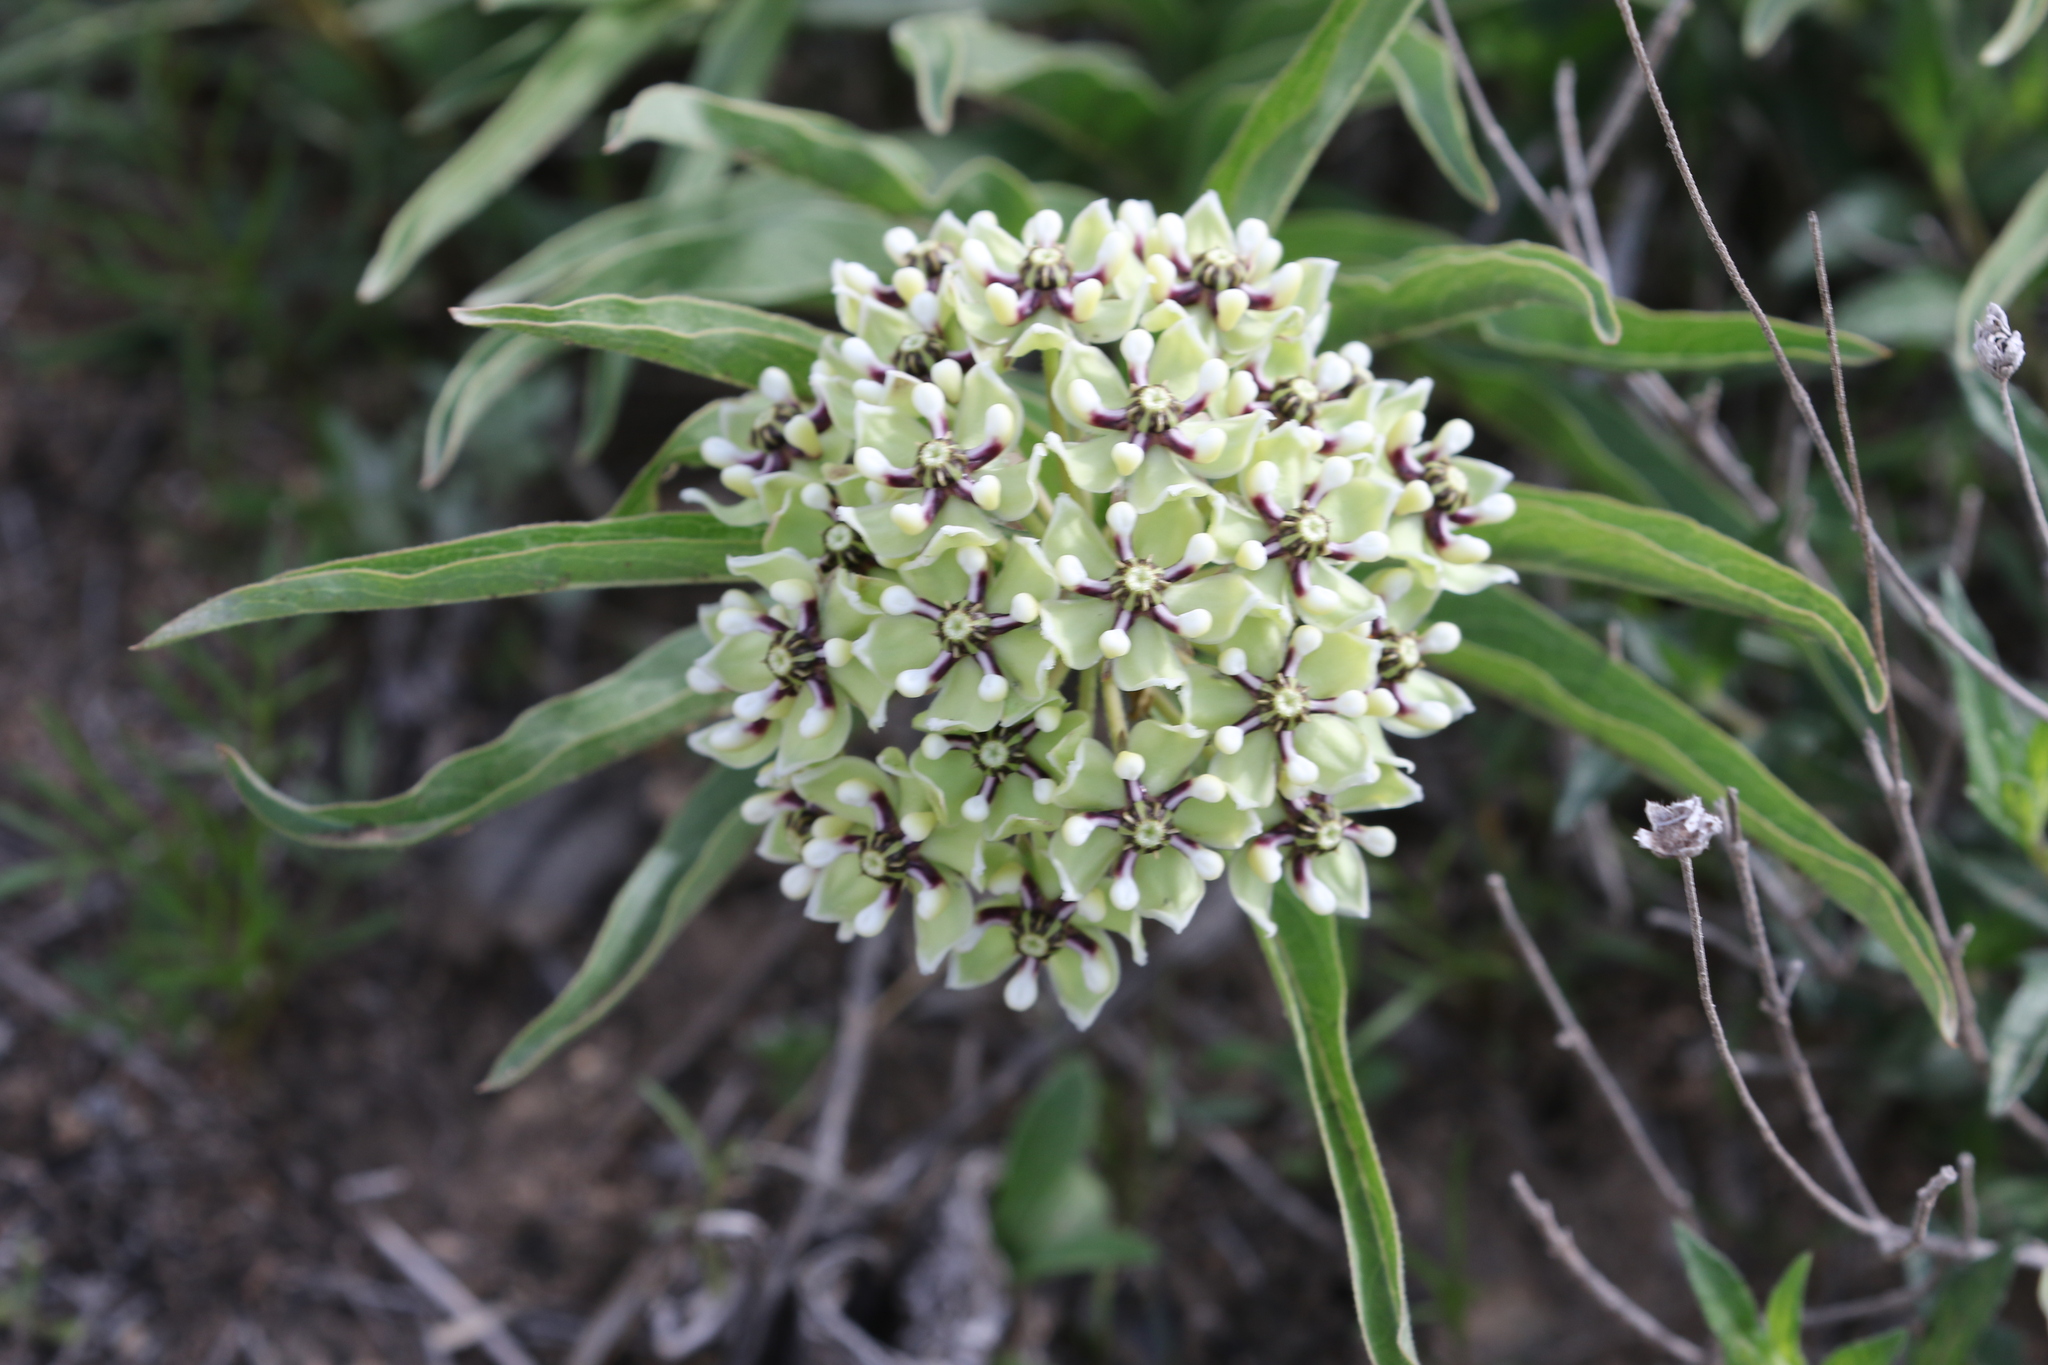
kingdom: Plantae
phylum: Tracheophyta
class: Magnoliopsida
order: Gentianales
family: Apocynaceae
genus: Asclepias
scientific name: Asclepias asperula
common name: Antelope horns
